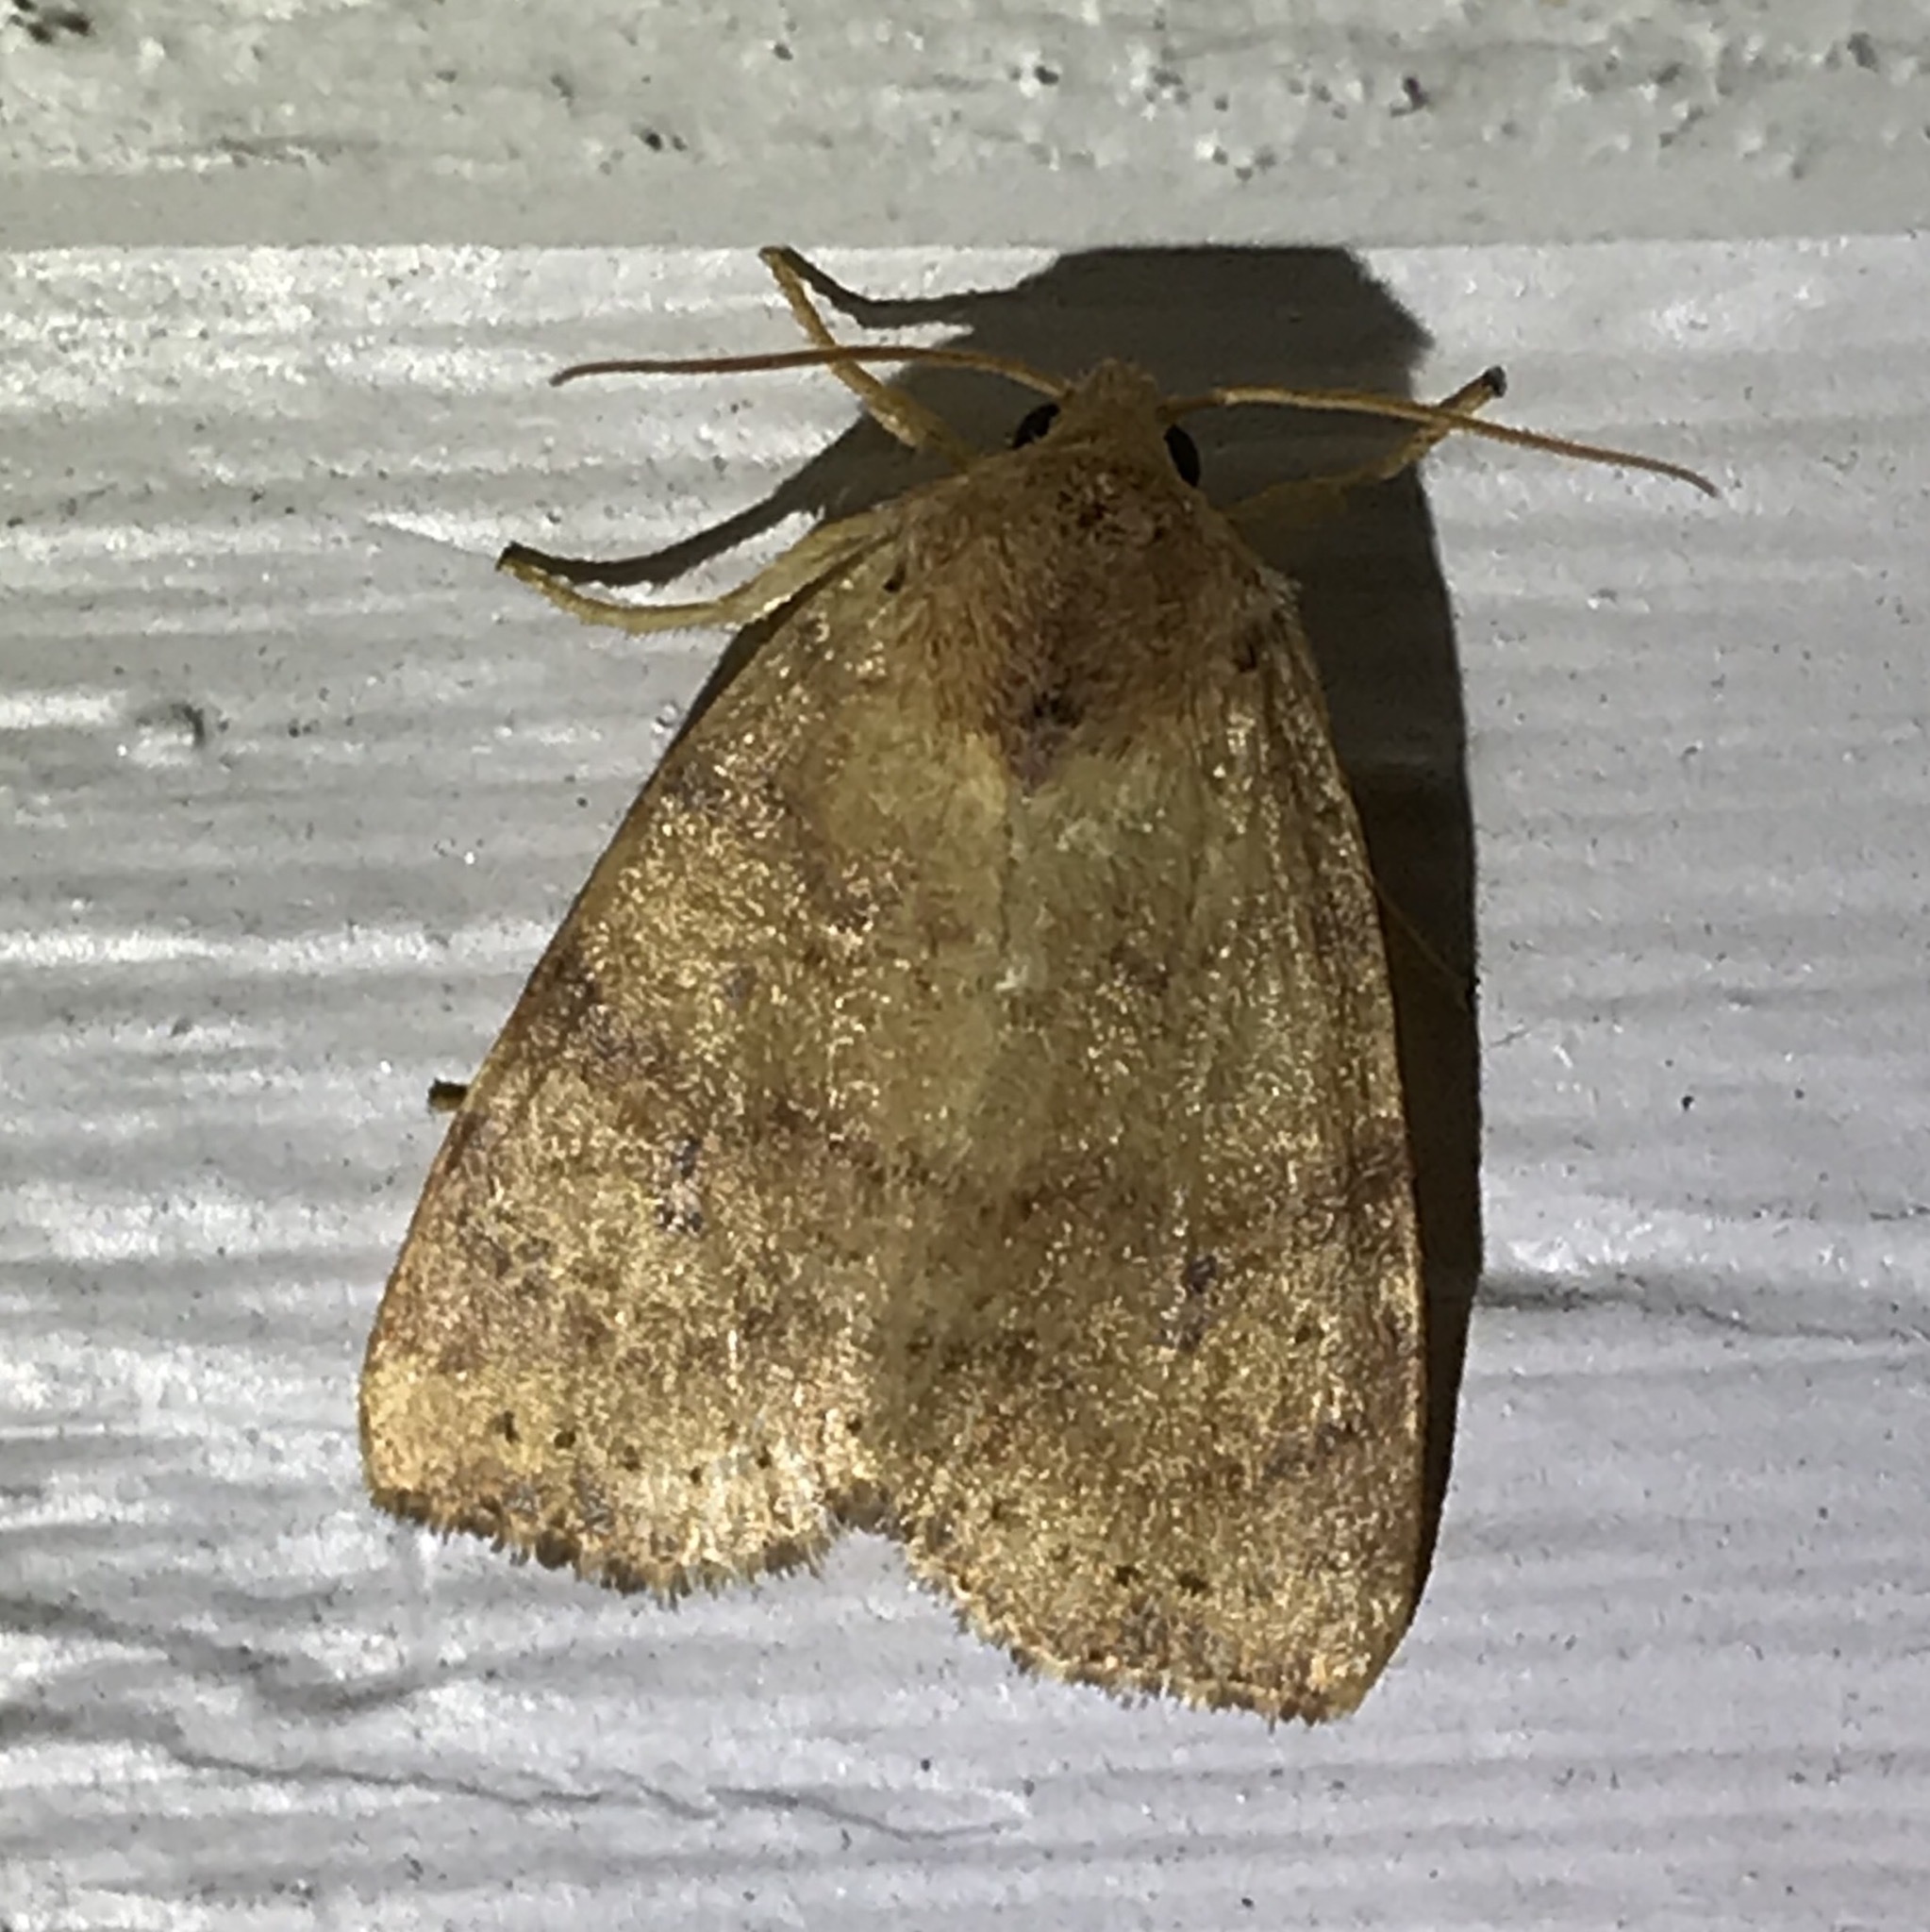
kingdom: Animalia
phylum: Arthropoda
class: Insecta
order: Lepidoptera
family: Noctuidae
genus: Anathix
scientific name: Anathix ralla
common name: Dotted sallow
